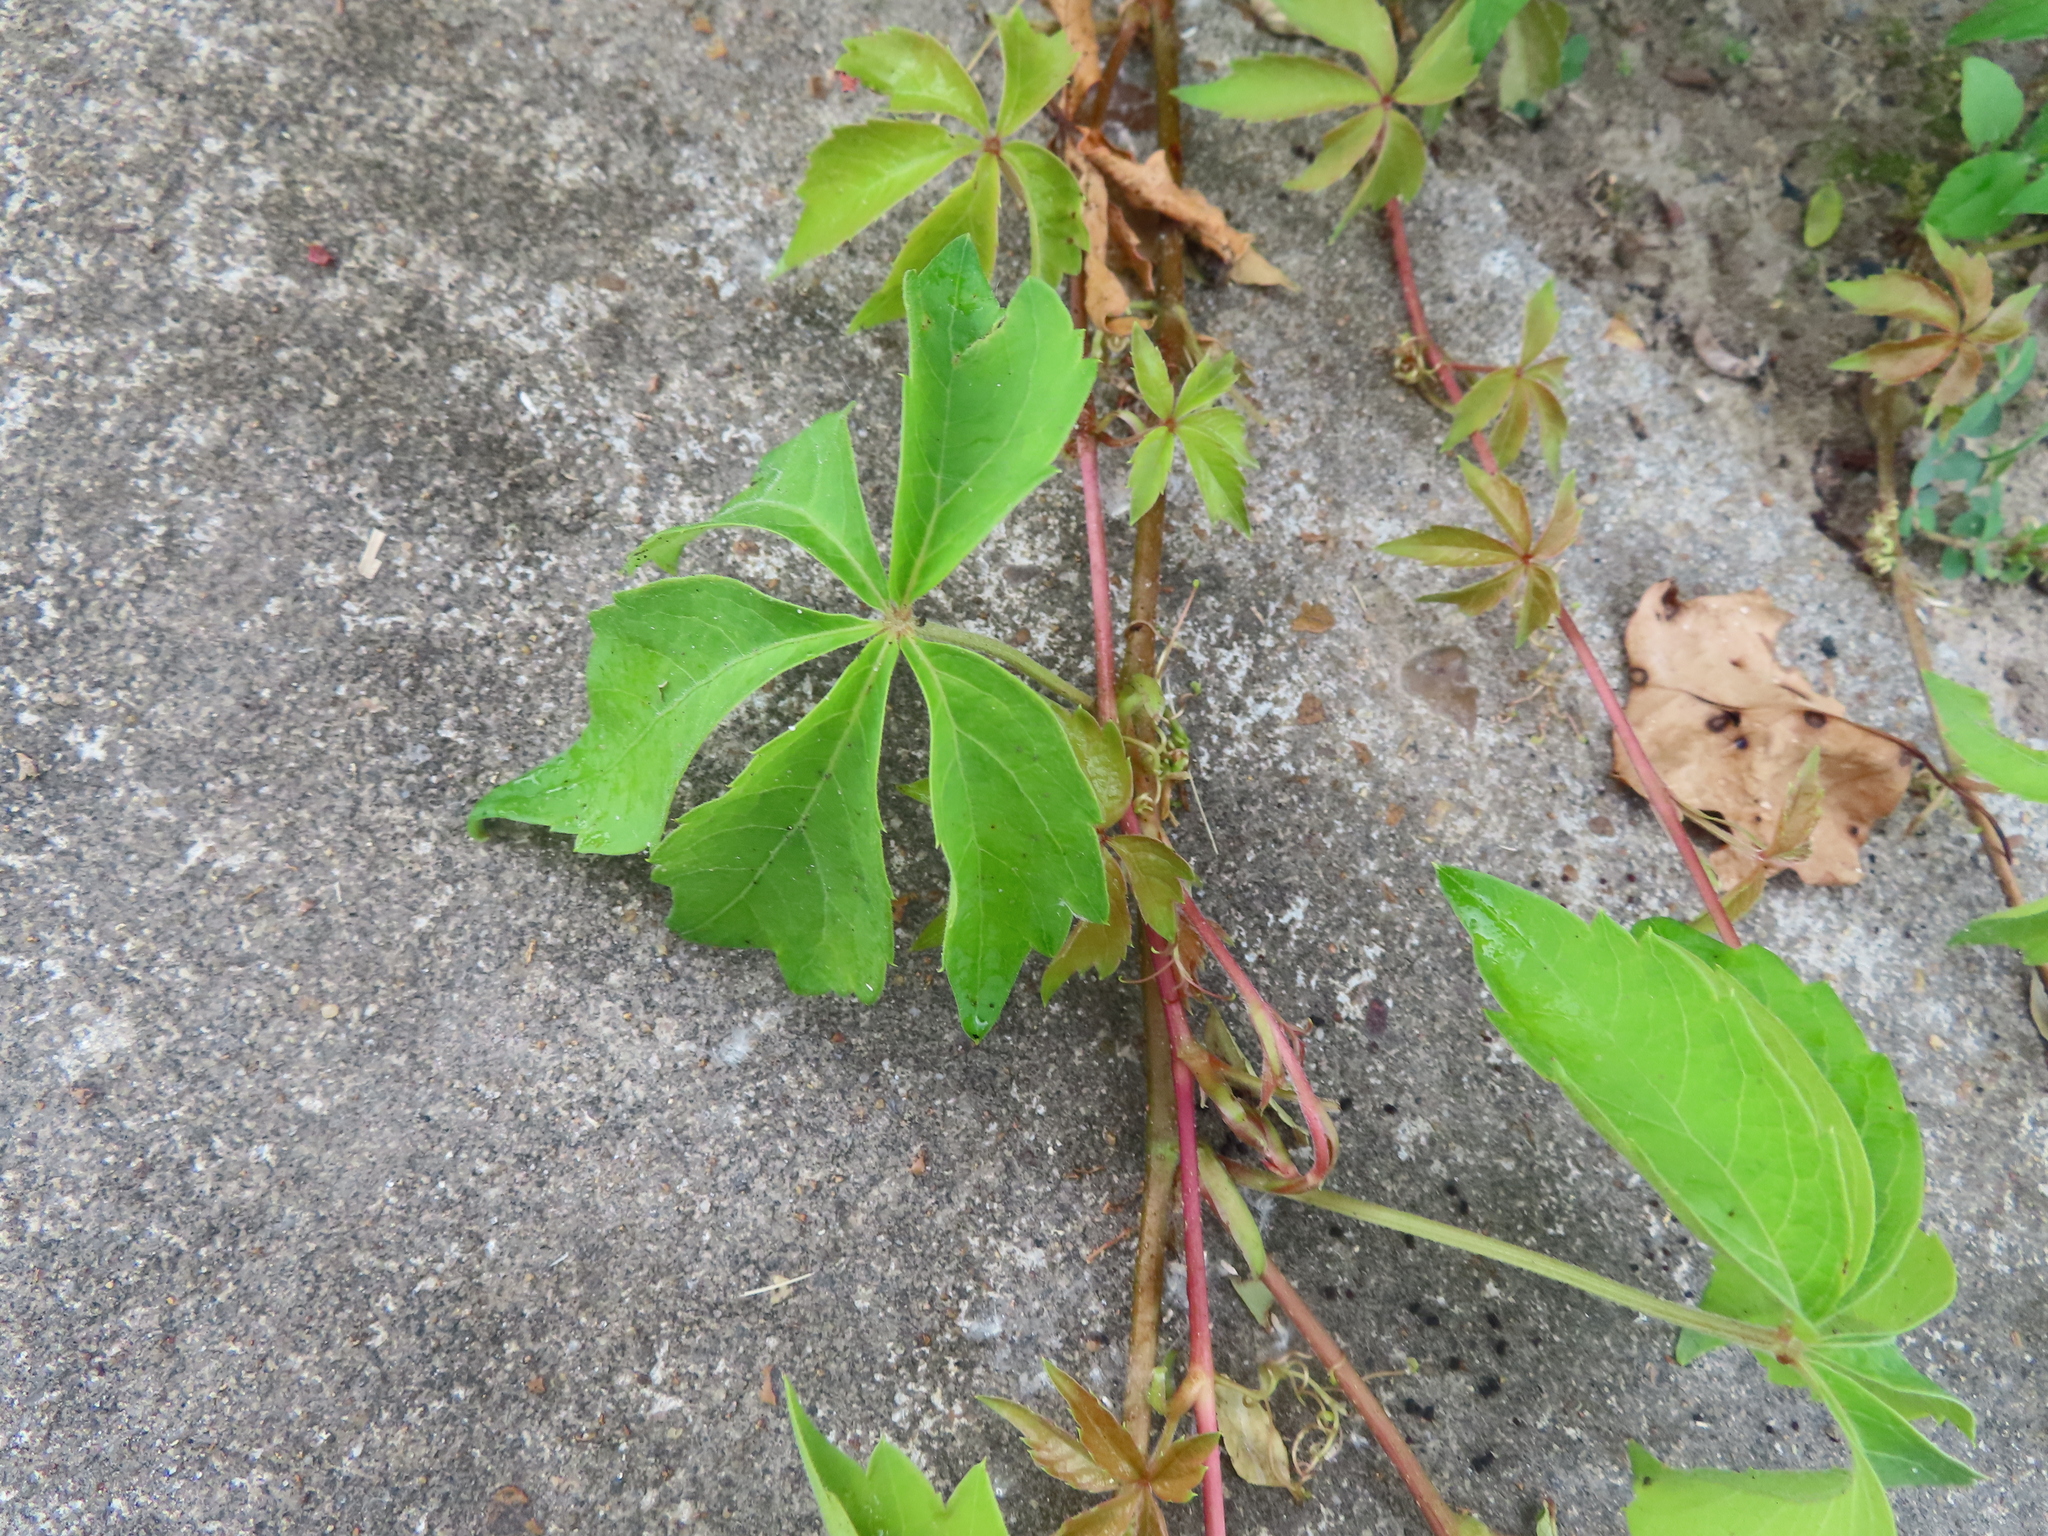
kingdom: Plantae
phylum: Tracheophyta
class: Magnoliopsida
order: Vitales
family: Vitaceae
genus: Parthenocissus
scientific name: Parthenocissus quinquefolia
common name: Virginia-creeper
